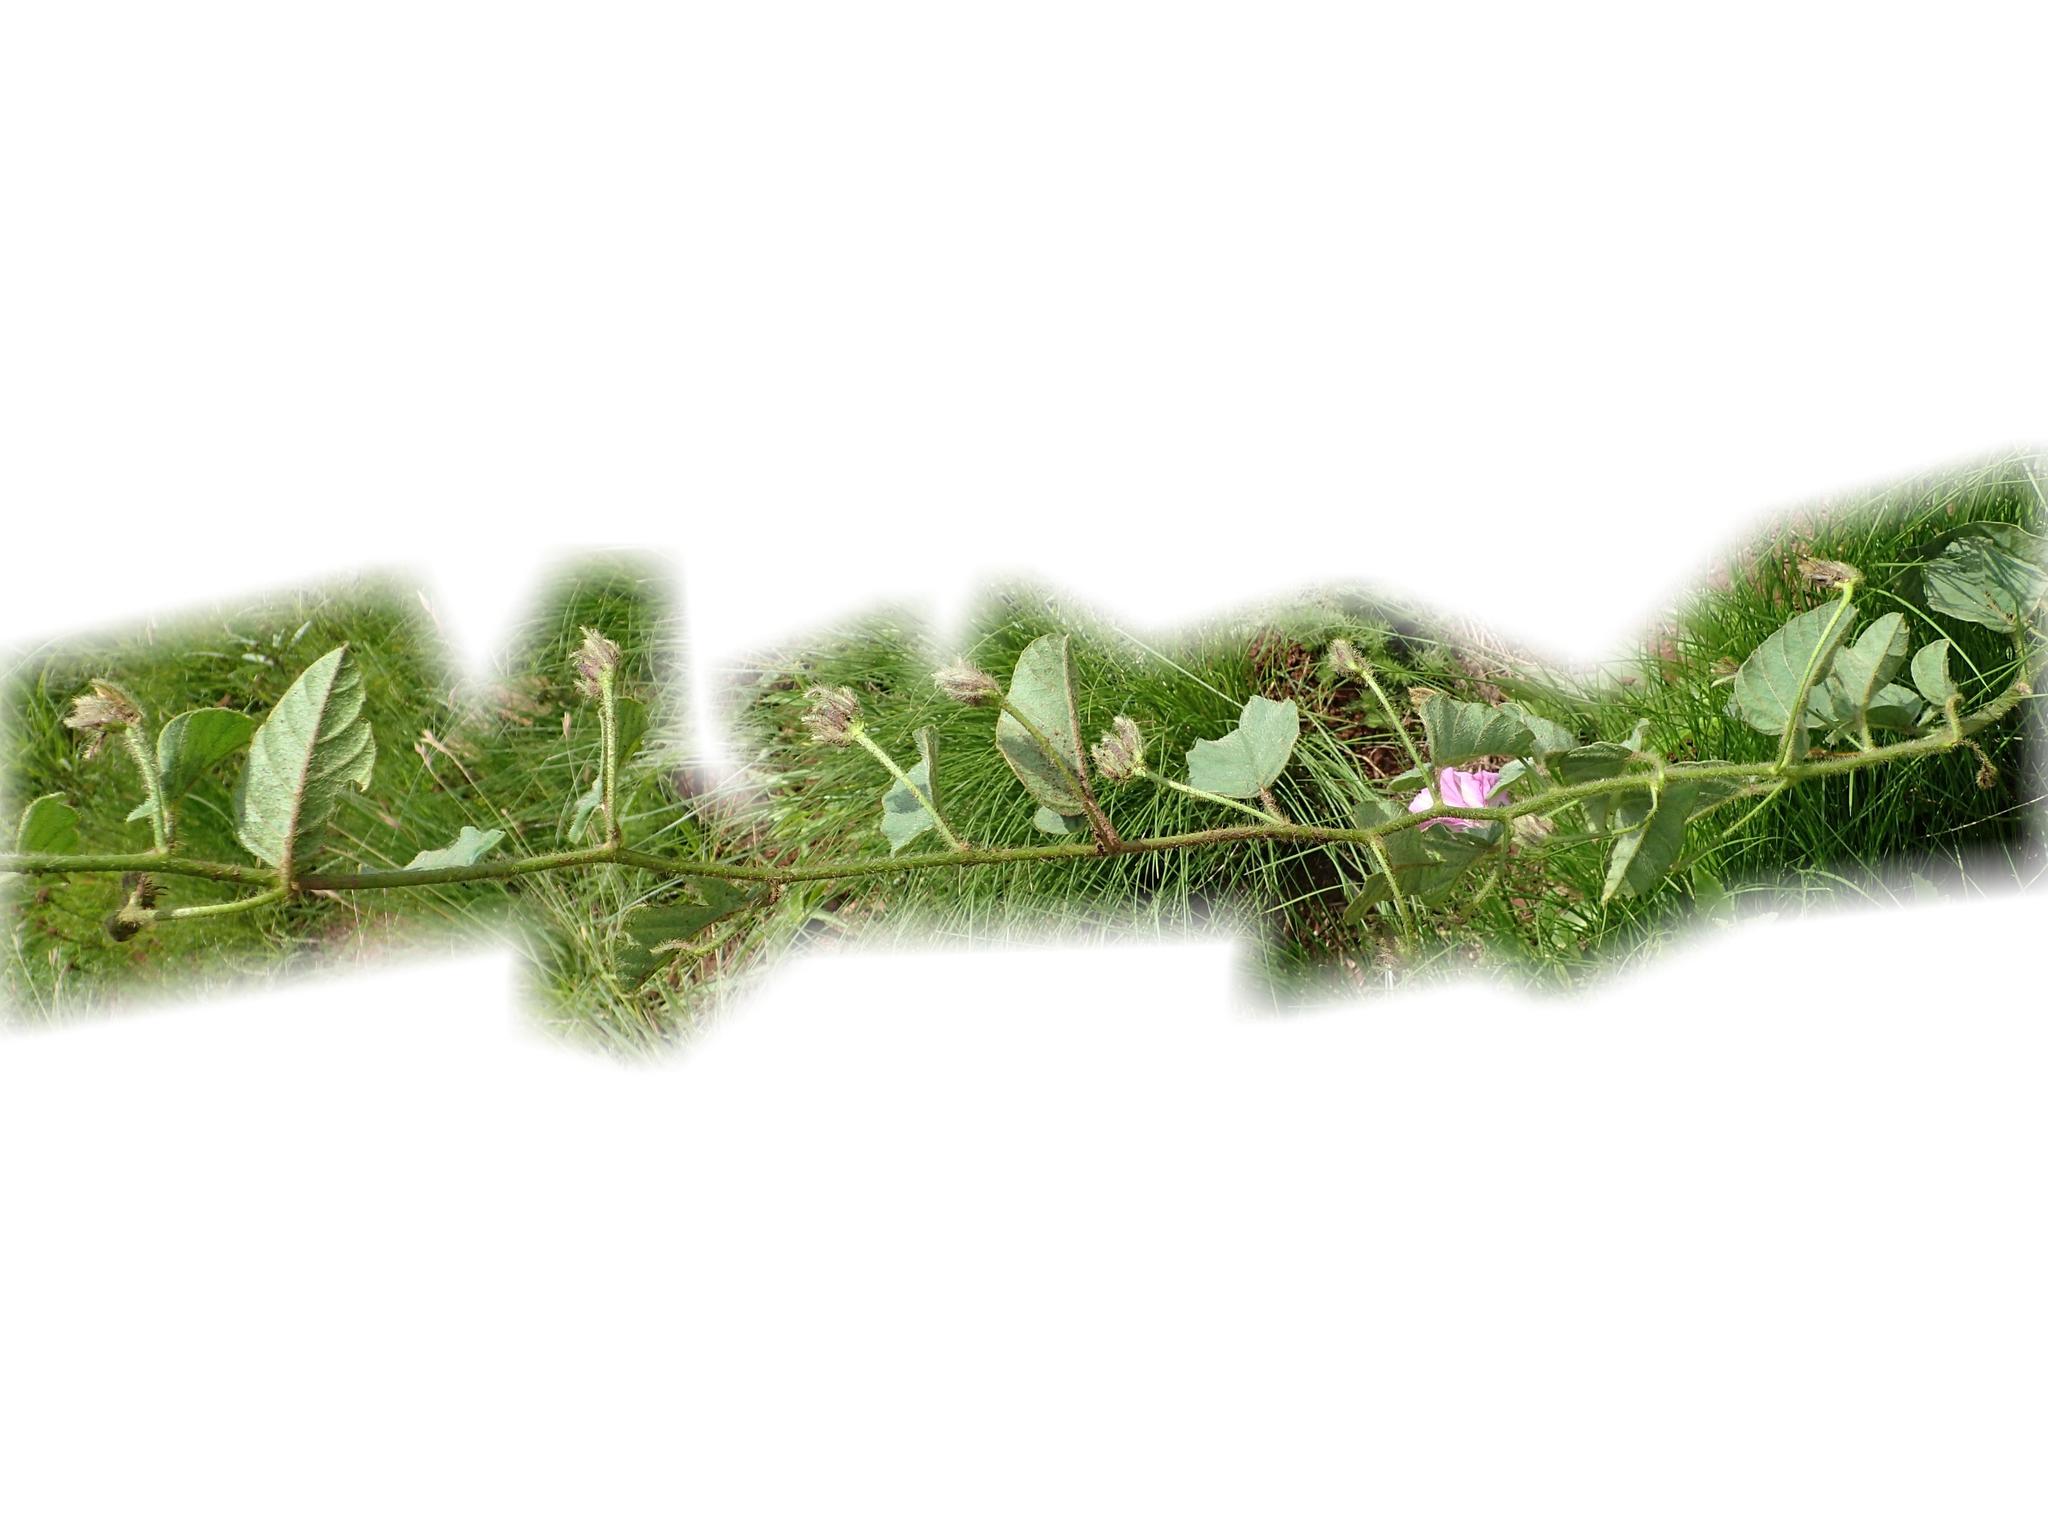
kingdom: Plantae
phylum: Tracheophyta
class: Magnoliopsida
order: Solanales
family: Convolvulaceae
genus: Ipomoea
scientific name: Ipomoea pellita
